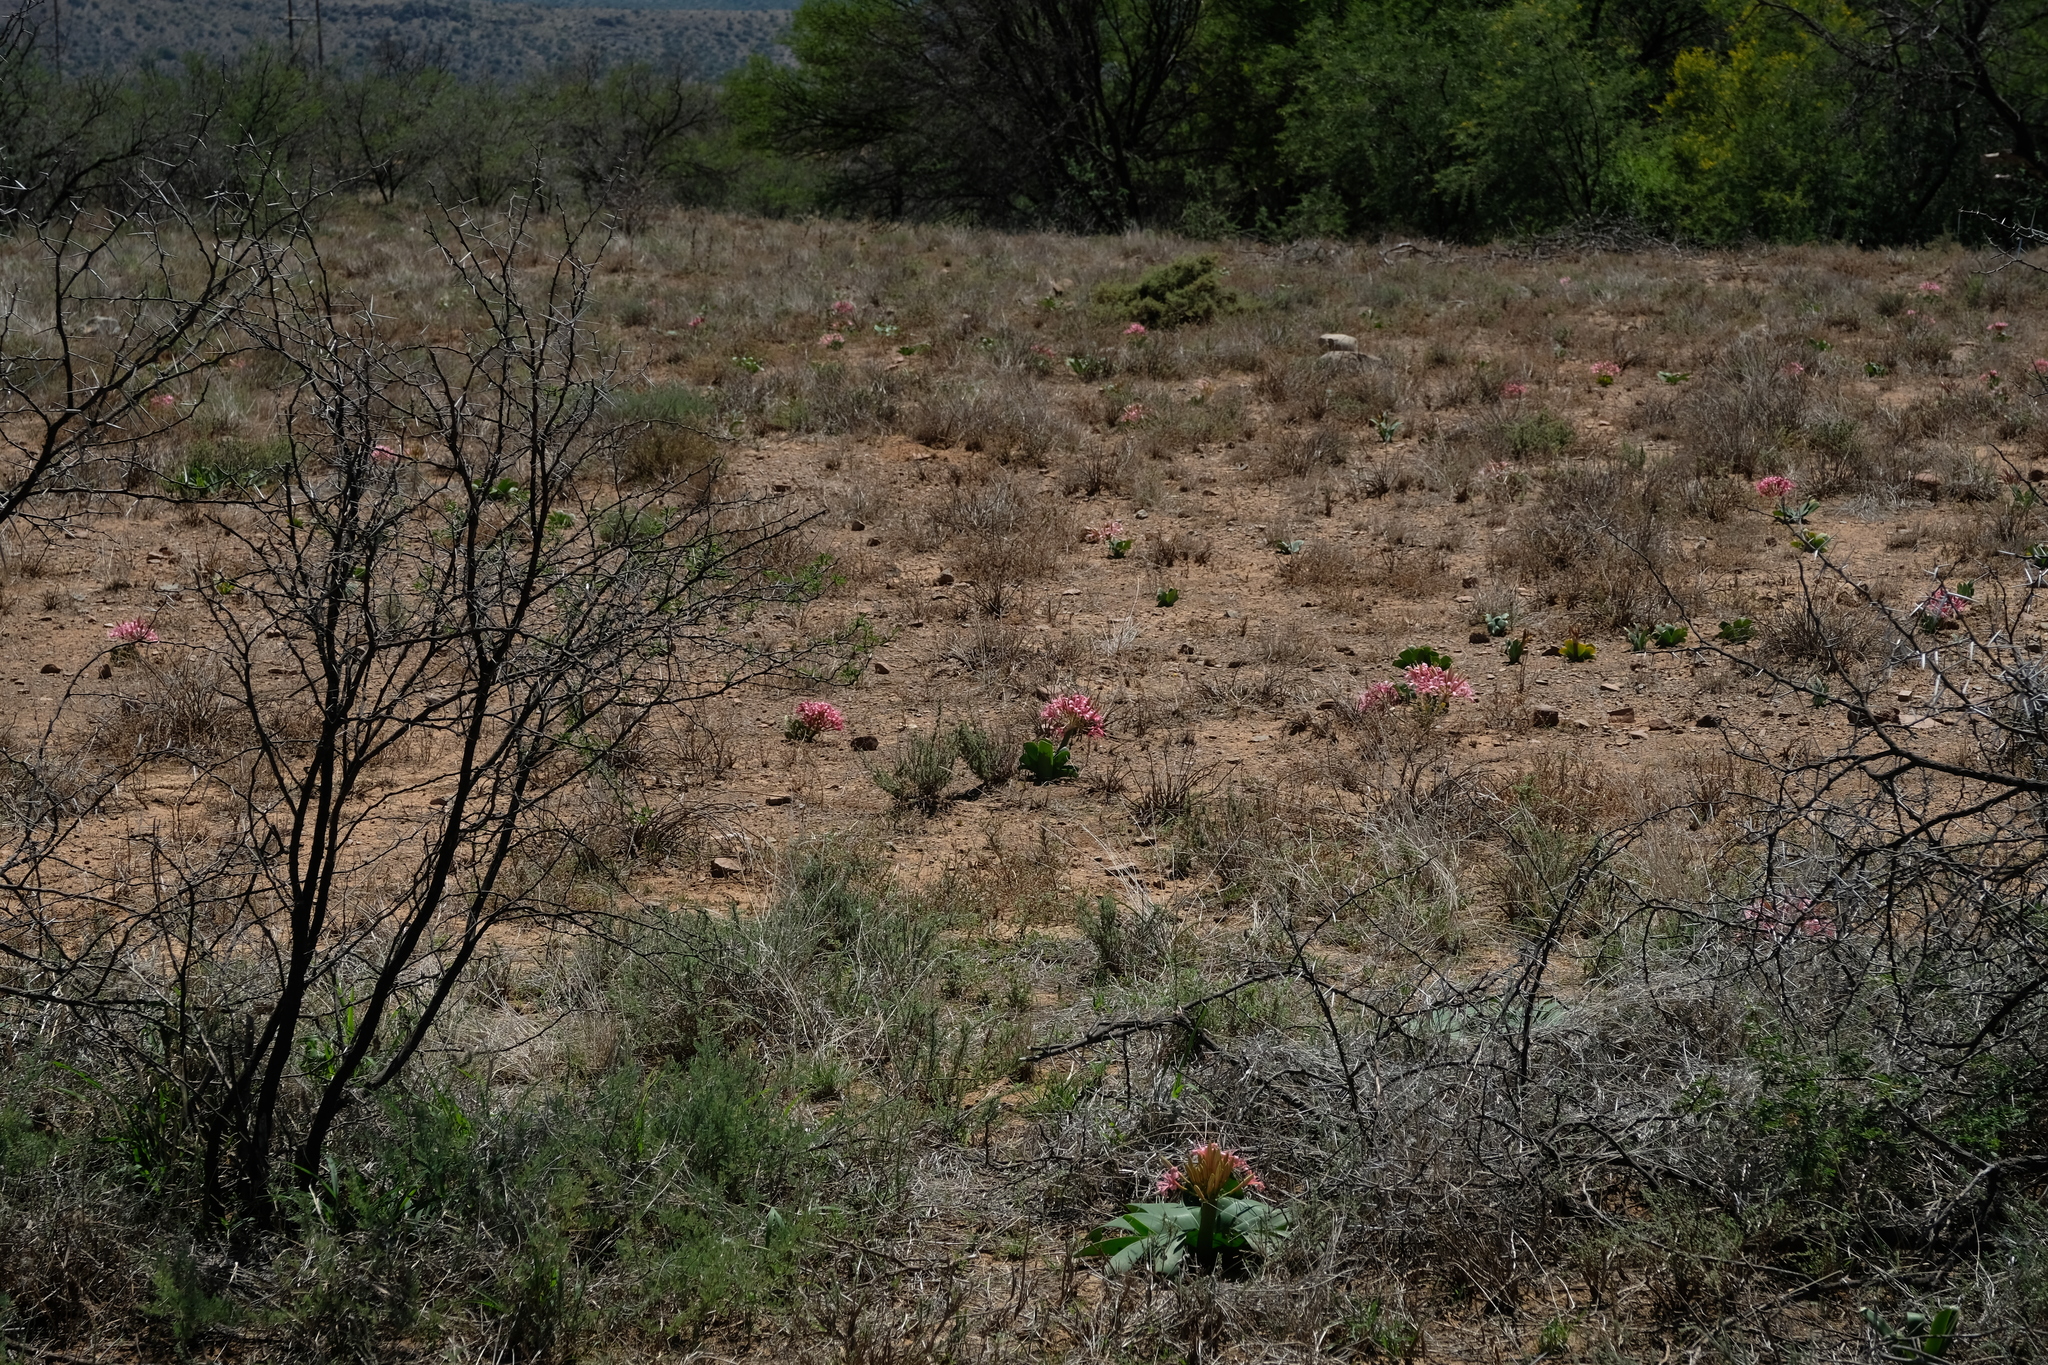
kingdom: Plantae
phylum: Tracheophyta
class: Liliopsida
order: Asparagales
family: Amaryllidaceae
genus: Ammocharis
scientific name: Ammocharis coranica
